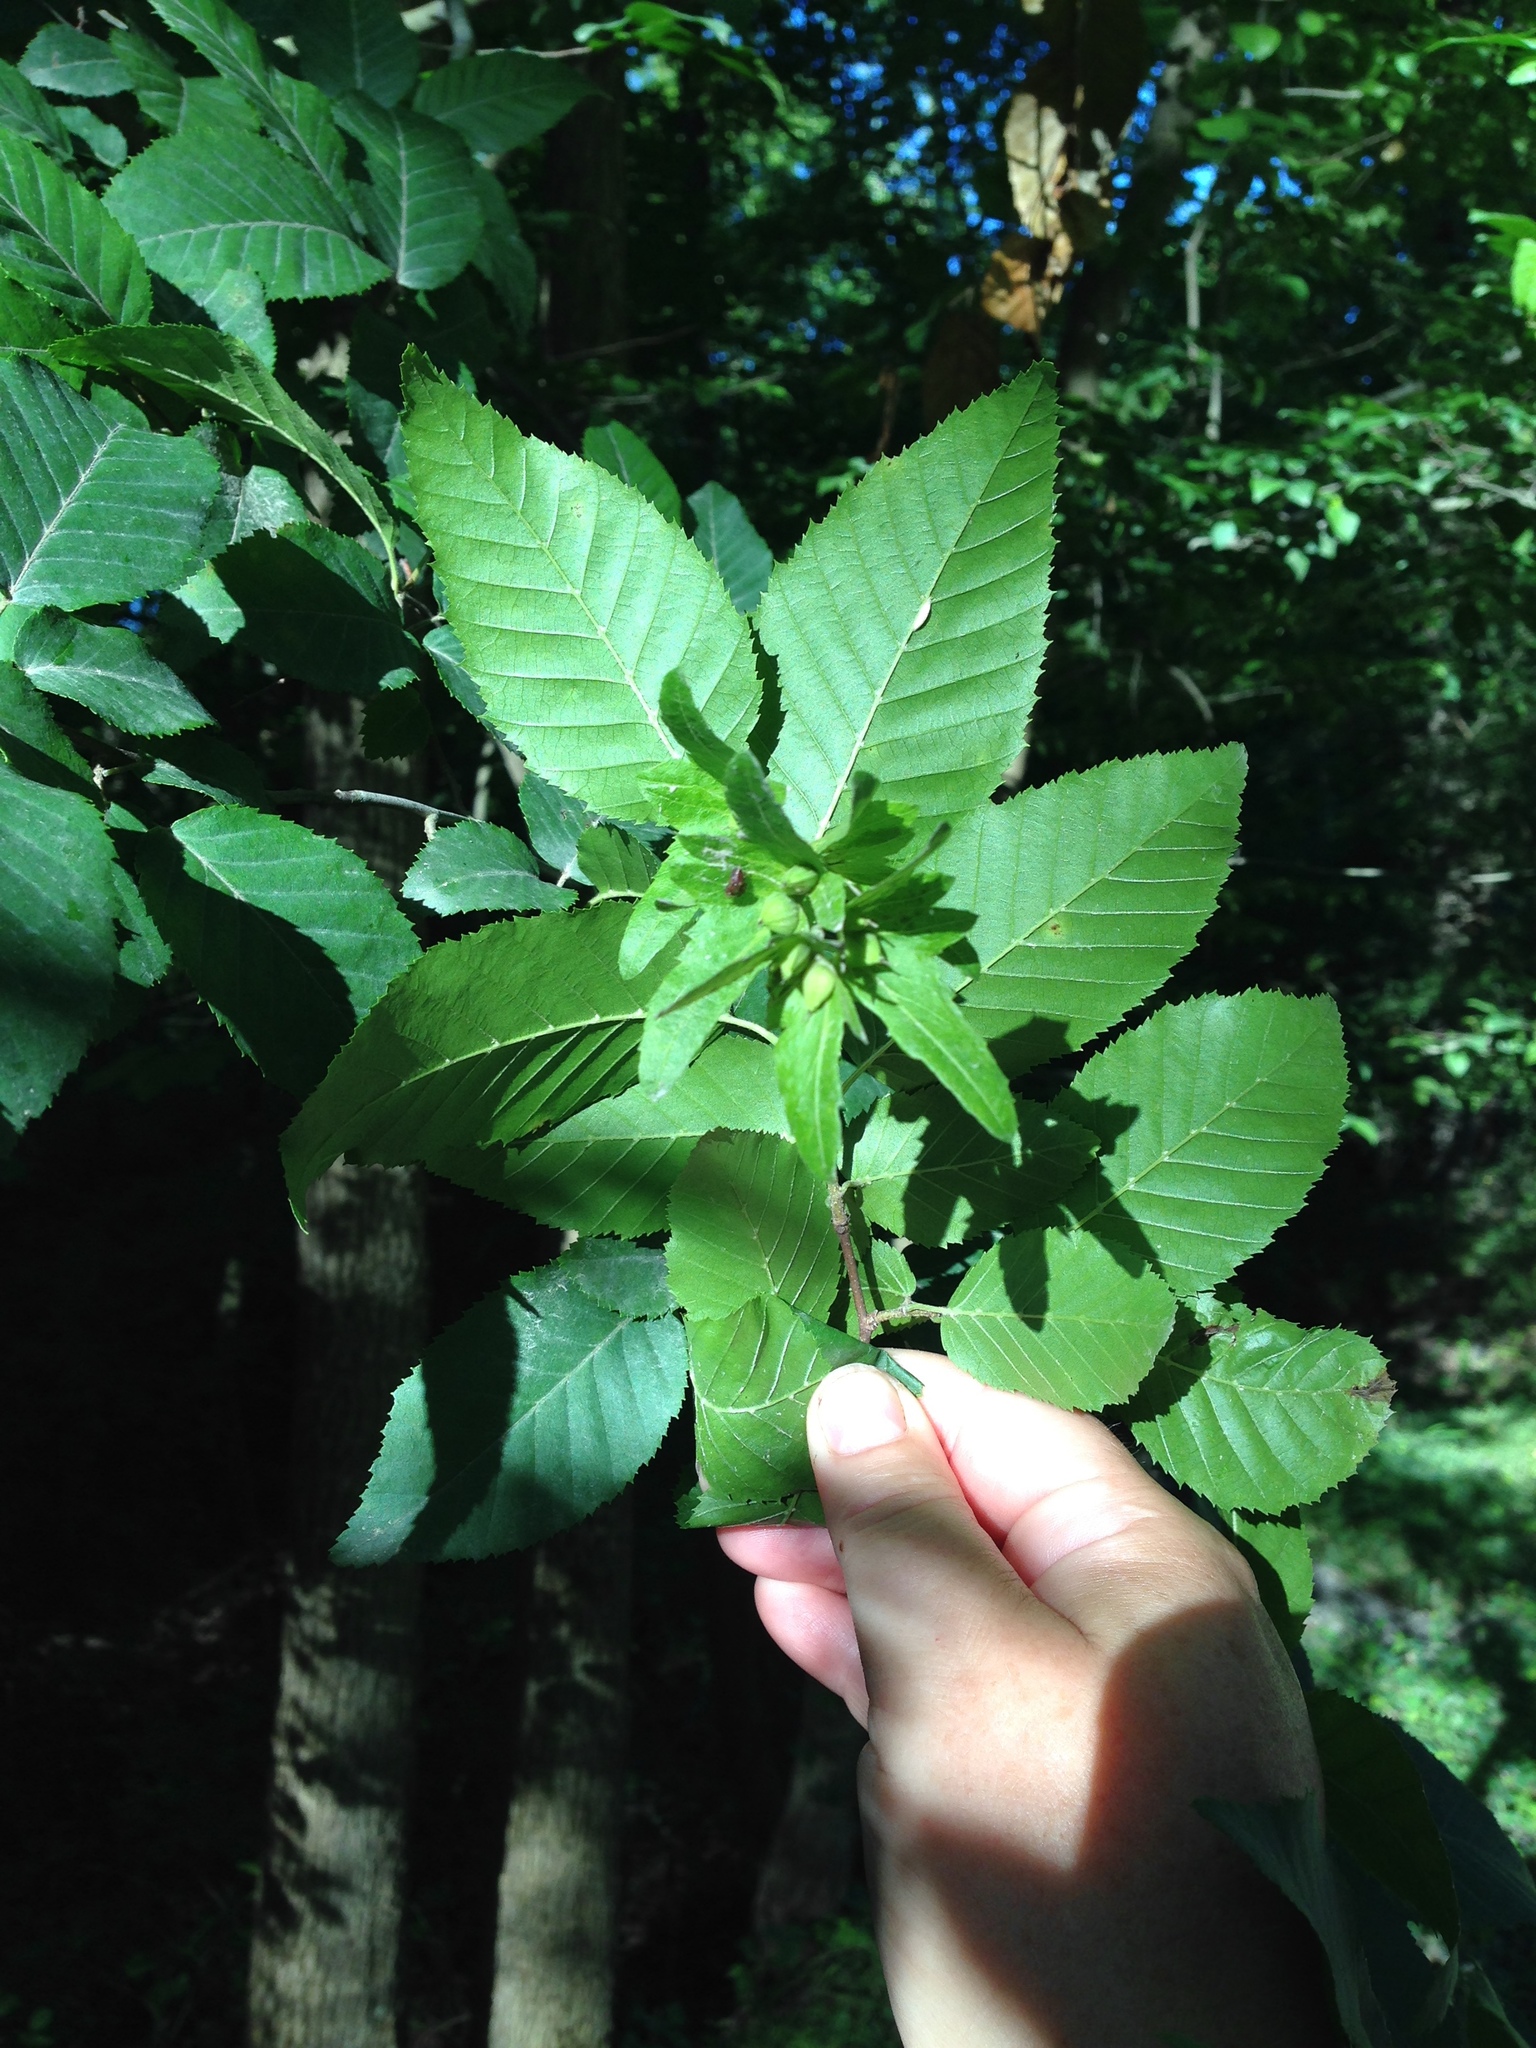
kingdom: Plantae
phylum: Tracheophyta
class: Magnoliopsida
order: Fagales
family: Betulaceae
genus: Carpinus
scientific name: Carpinus caroliniana
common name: American hornbeam
